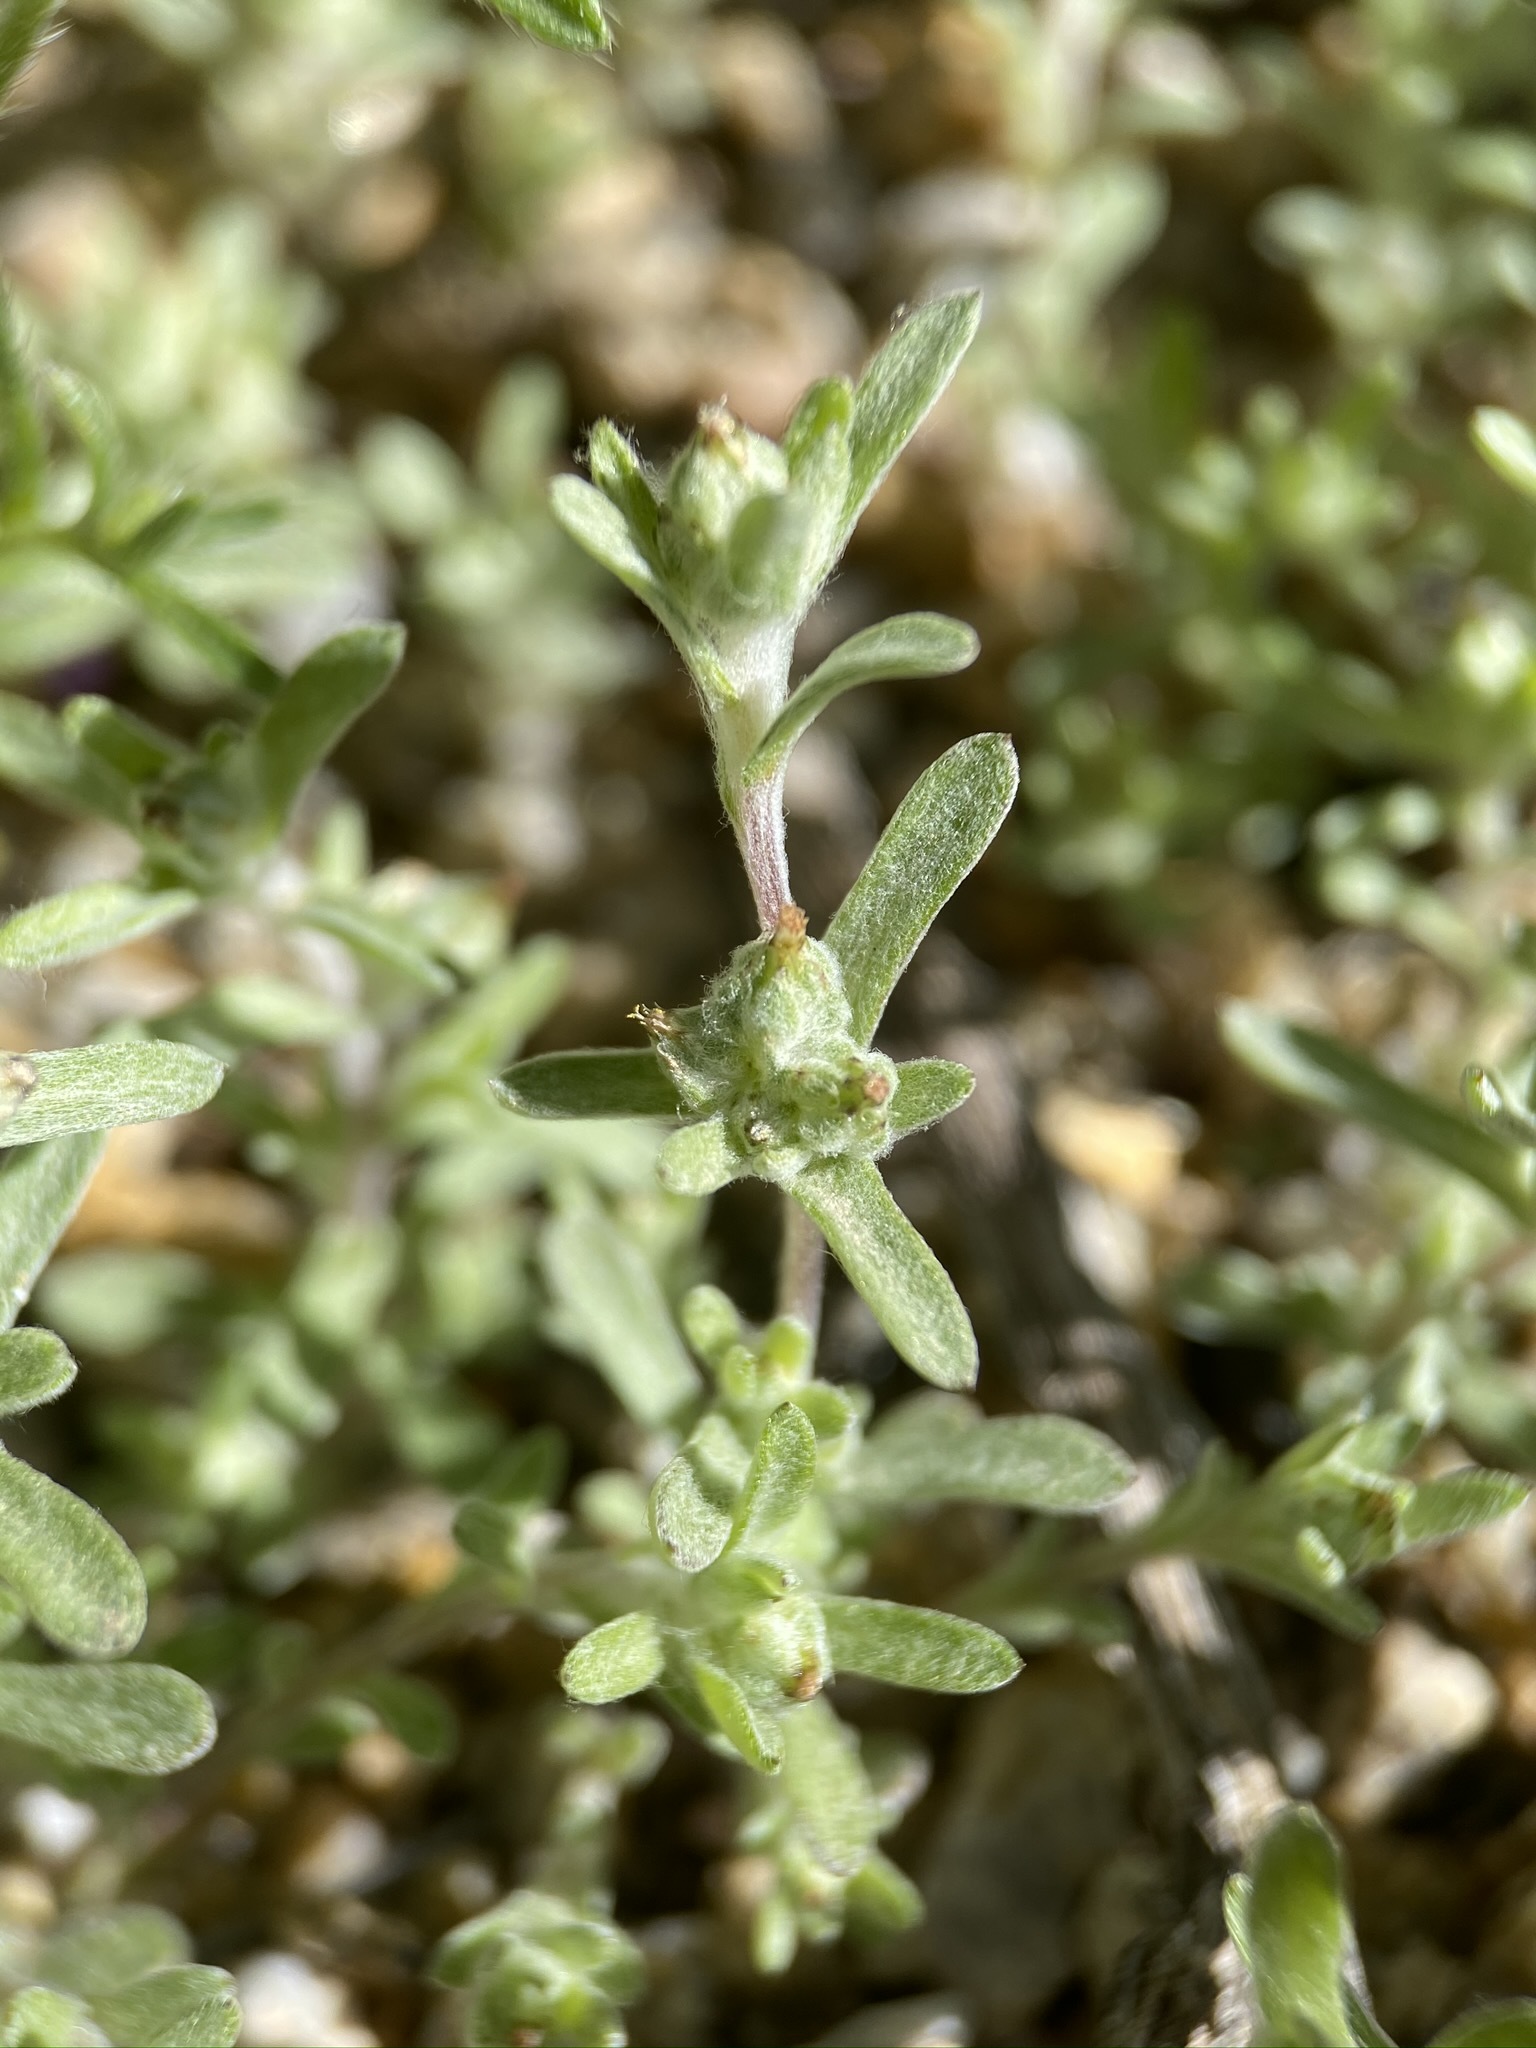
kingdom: Plantae
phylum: Tracheophyta
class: Magnoliopsida
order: Asterales
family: Asteraceae
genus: Logfia
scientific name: Logfia californica
